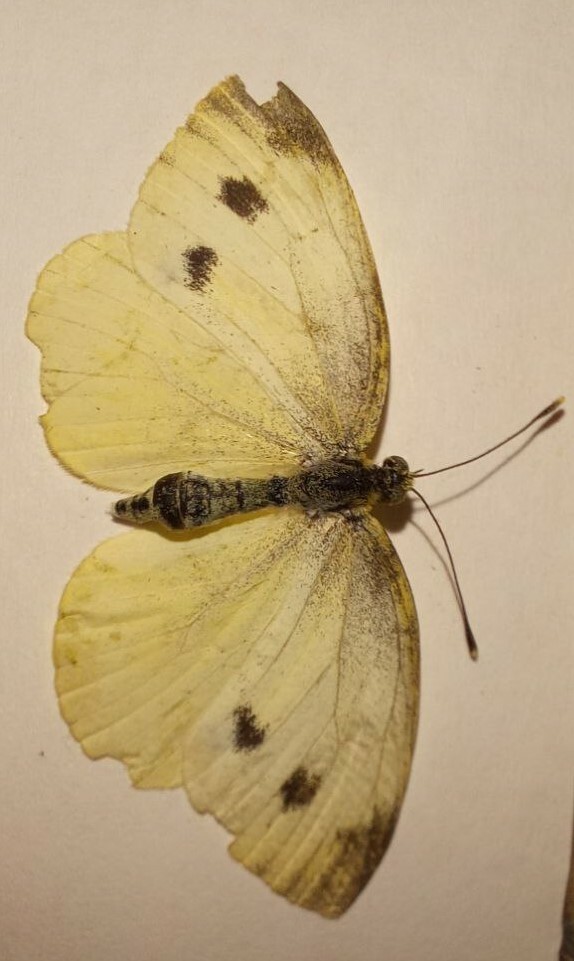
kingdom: Animalia
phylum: Arthropoda
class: Insecta
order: Lepidoptera
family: Pieridae
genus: Pieris
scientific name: Pieris napi
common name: Green-veined white
